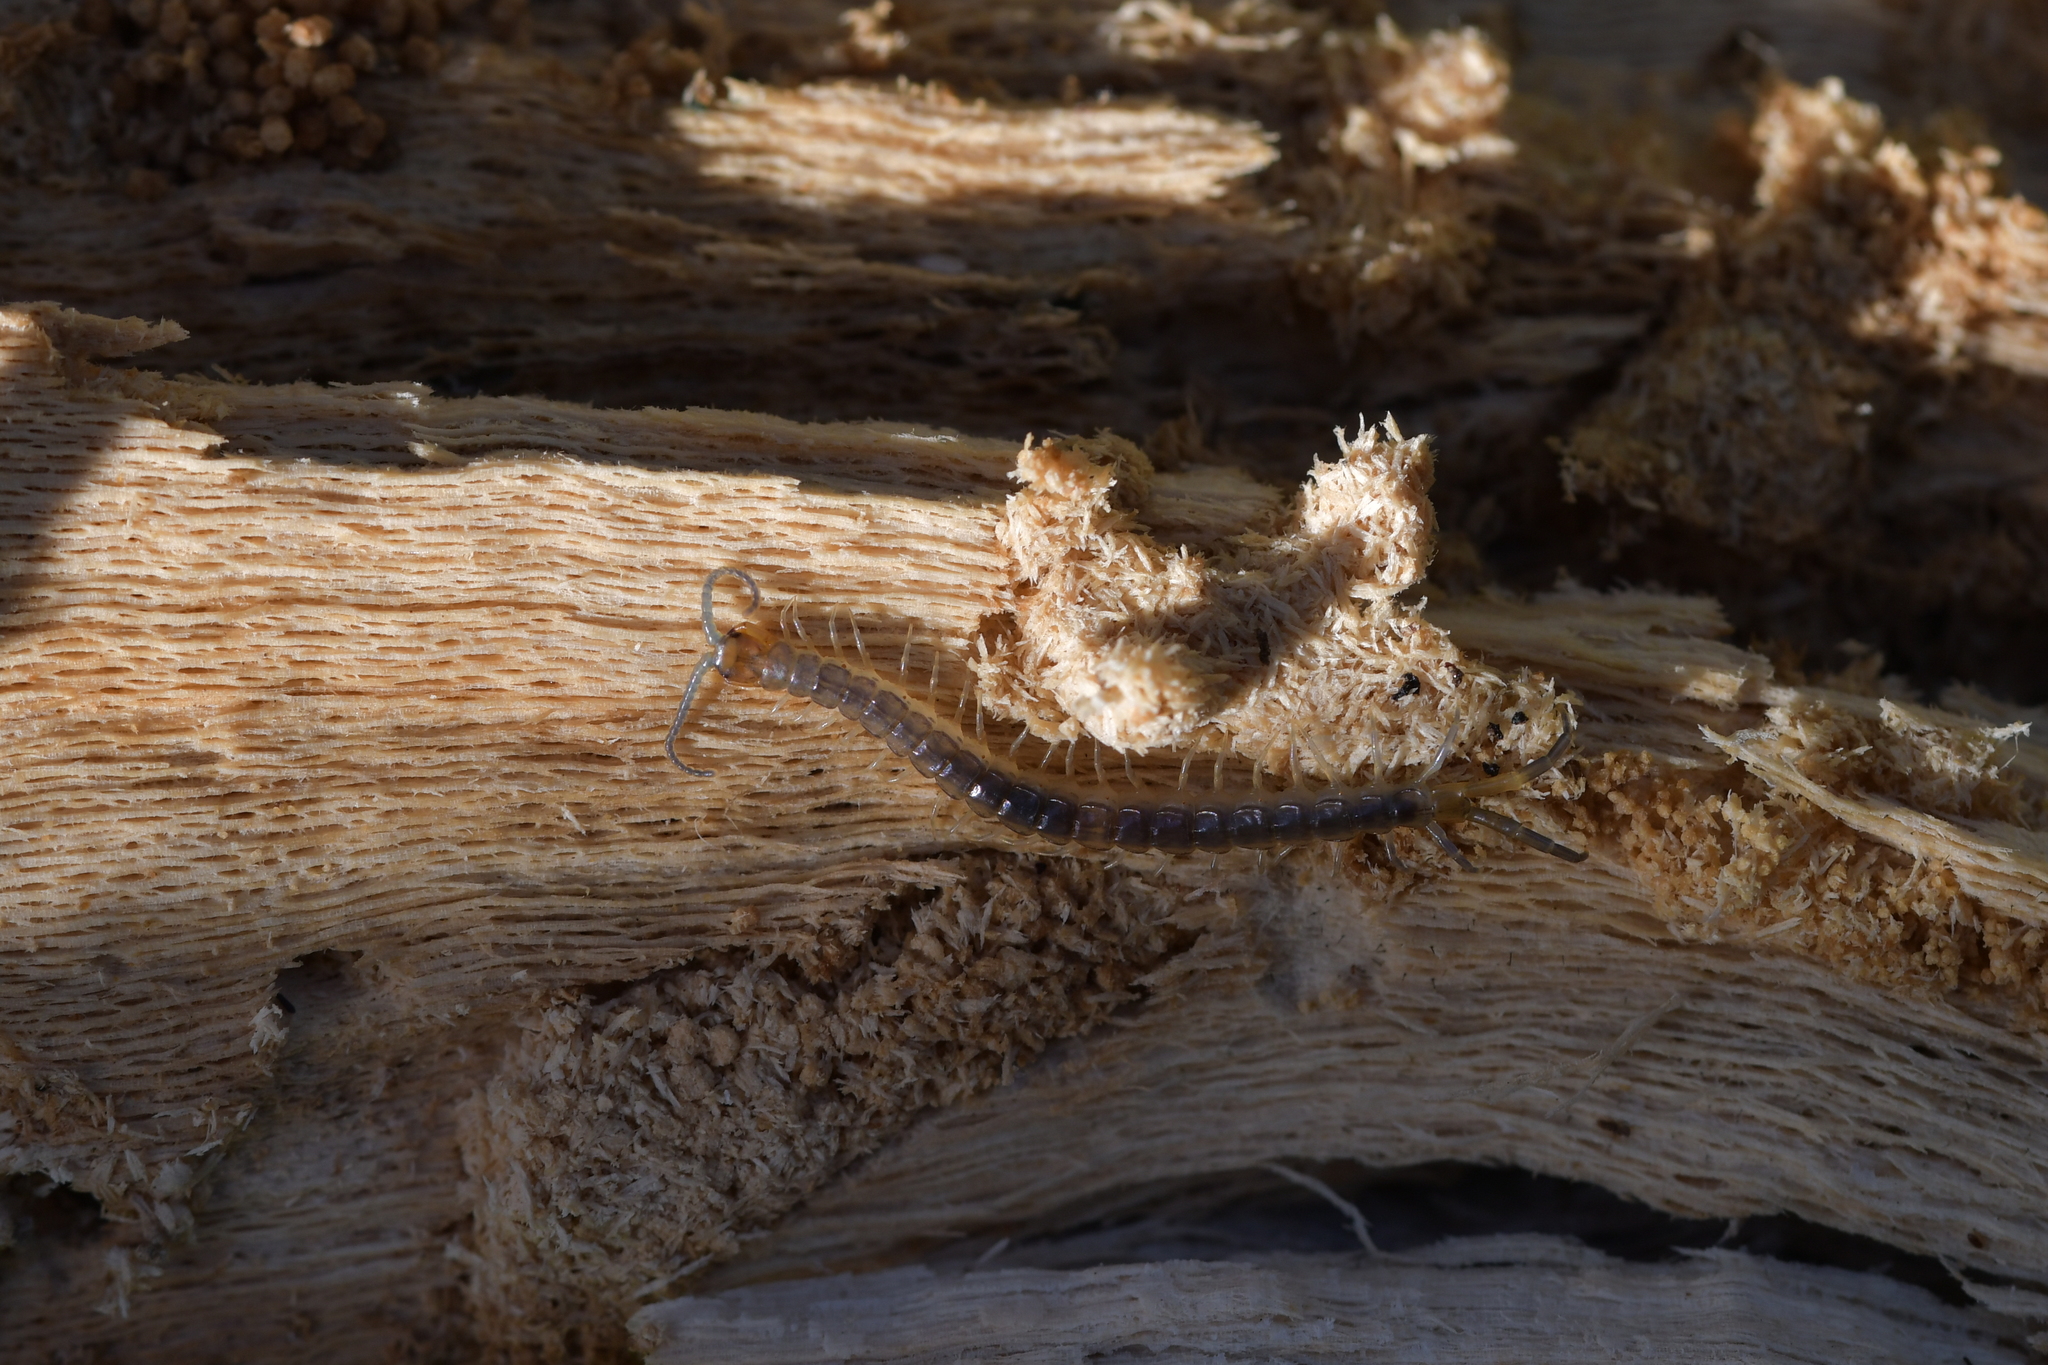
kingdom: Animalia
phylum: Arthropoda
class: Chilopoda
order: Scolopendromorpha
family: Scolopendridae
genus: Cormocephalus
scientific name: Cormocephalus rubriceps
